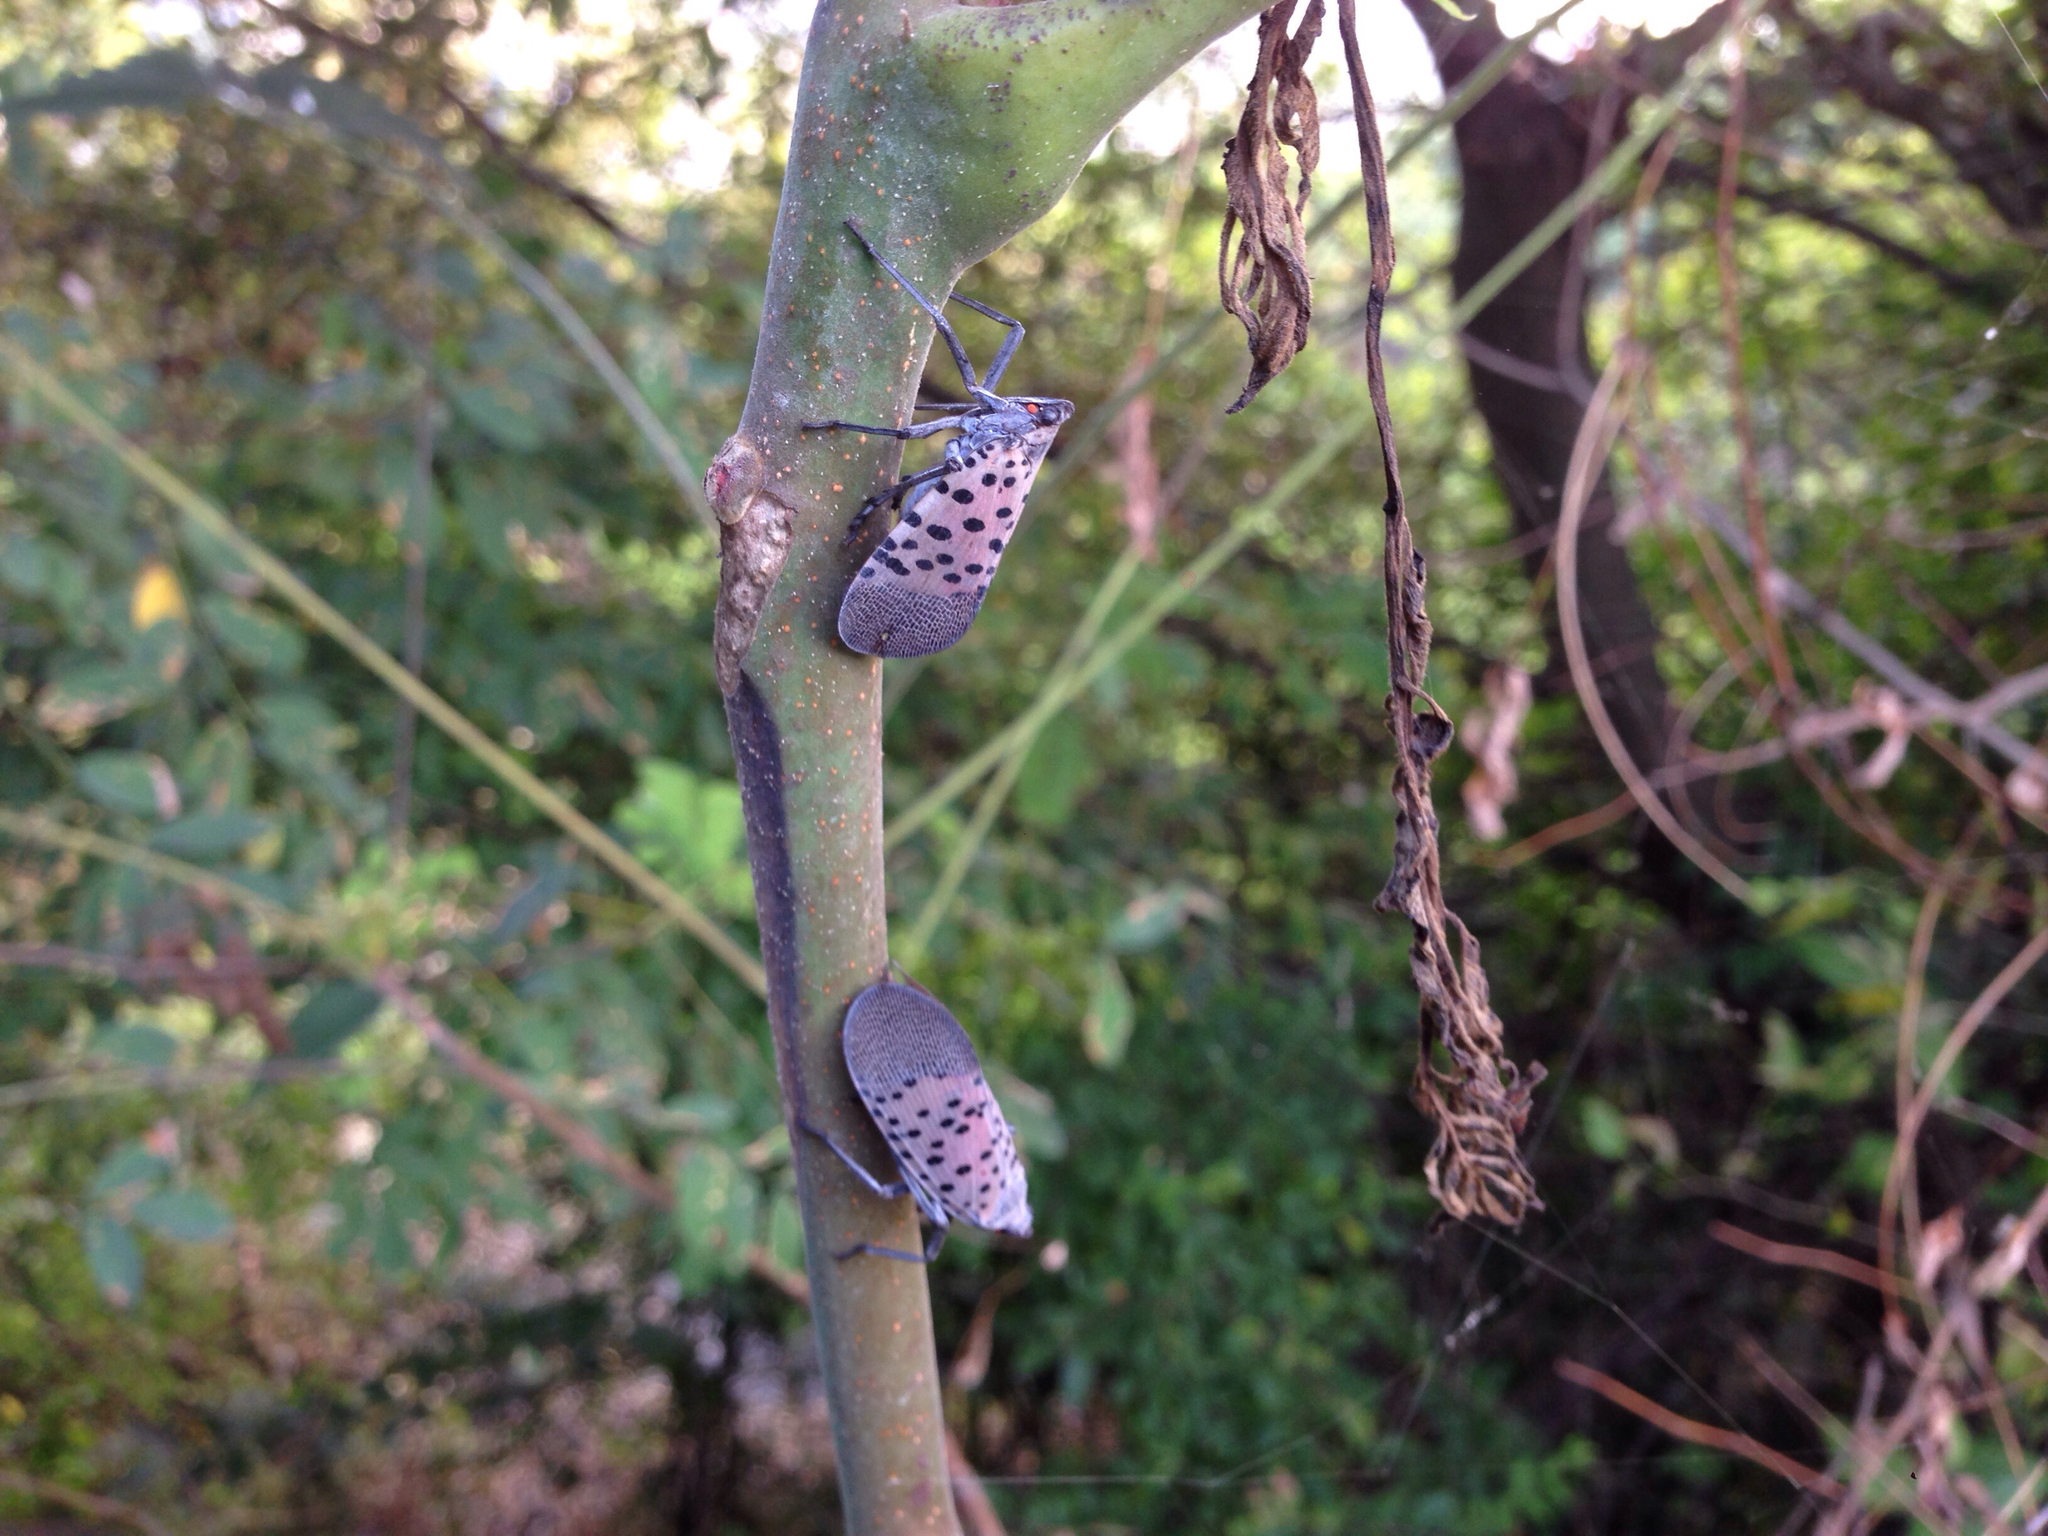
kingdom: Animalia
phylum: Arthropoda
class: Insecta
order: Hemiptera
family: Fulgoridae
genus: Lycorma
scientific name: Lycorma delicatula
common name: Spotted lanternfly
